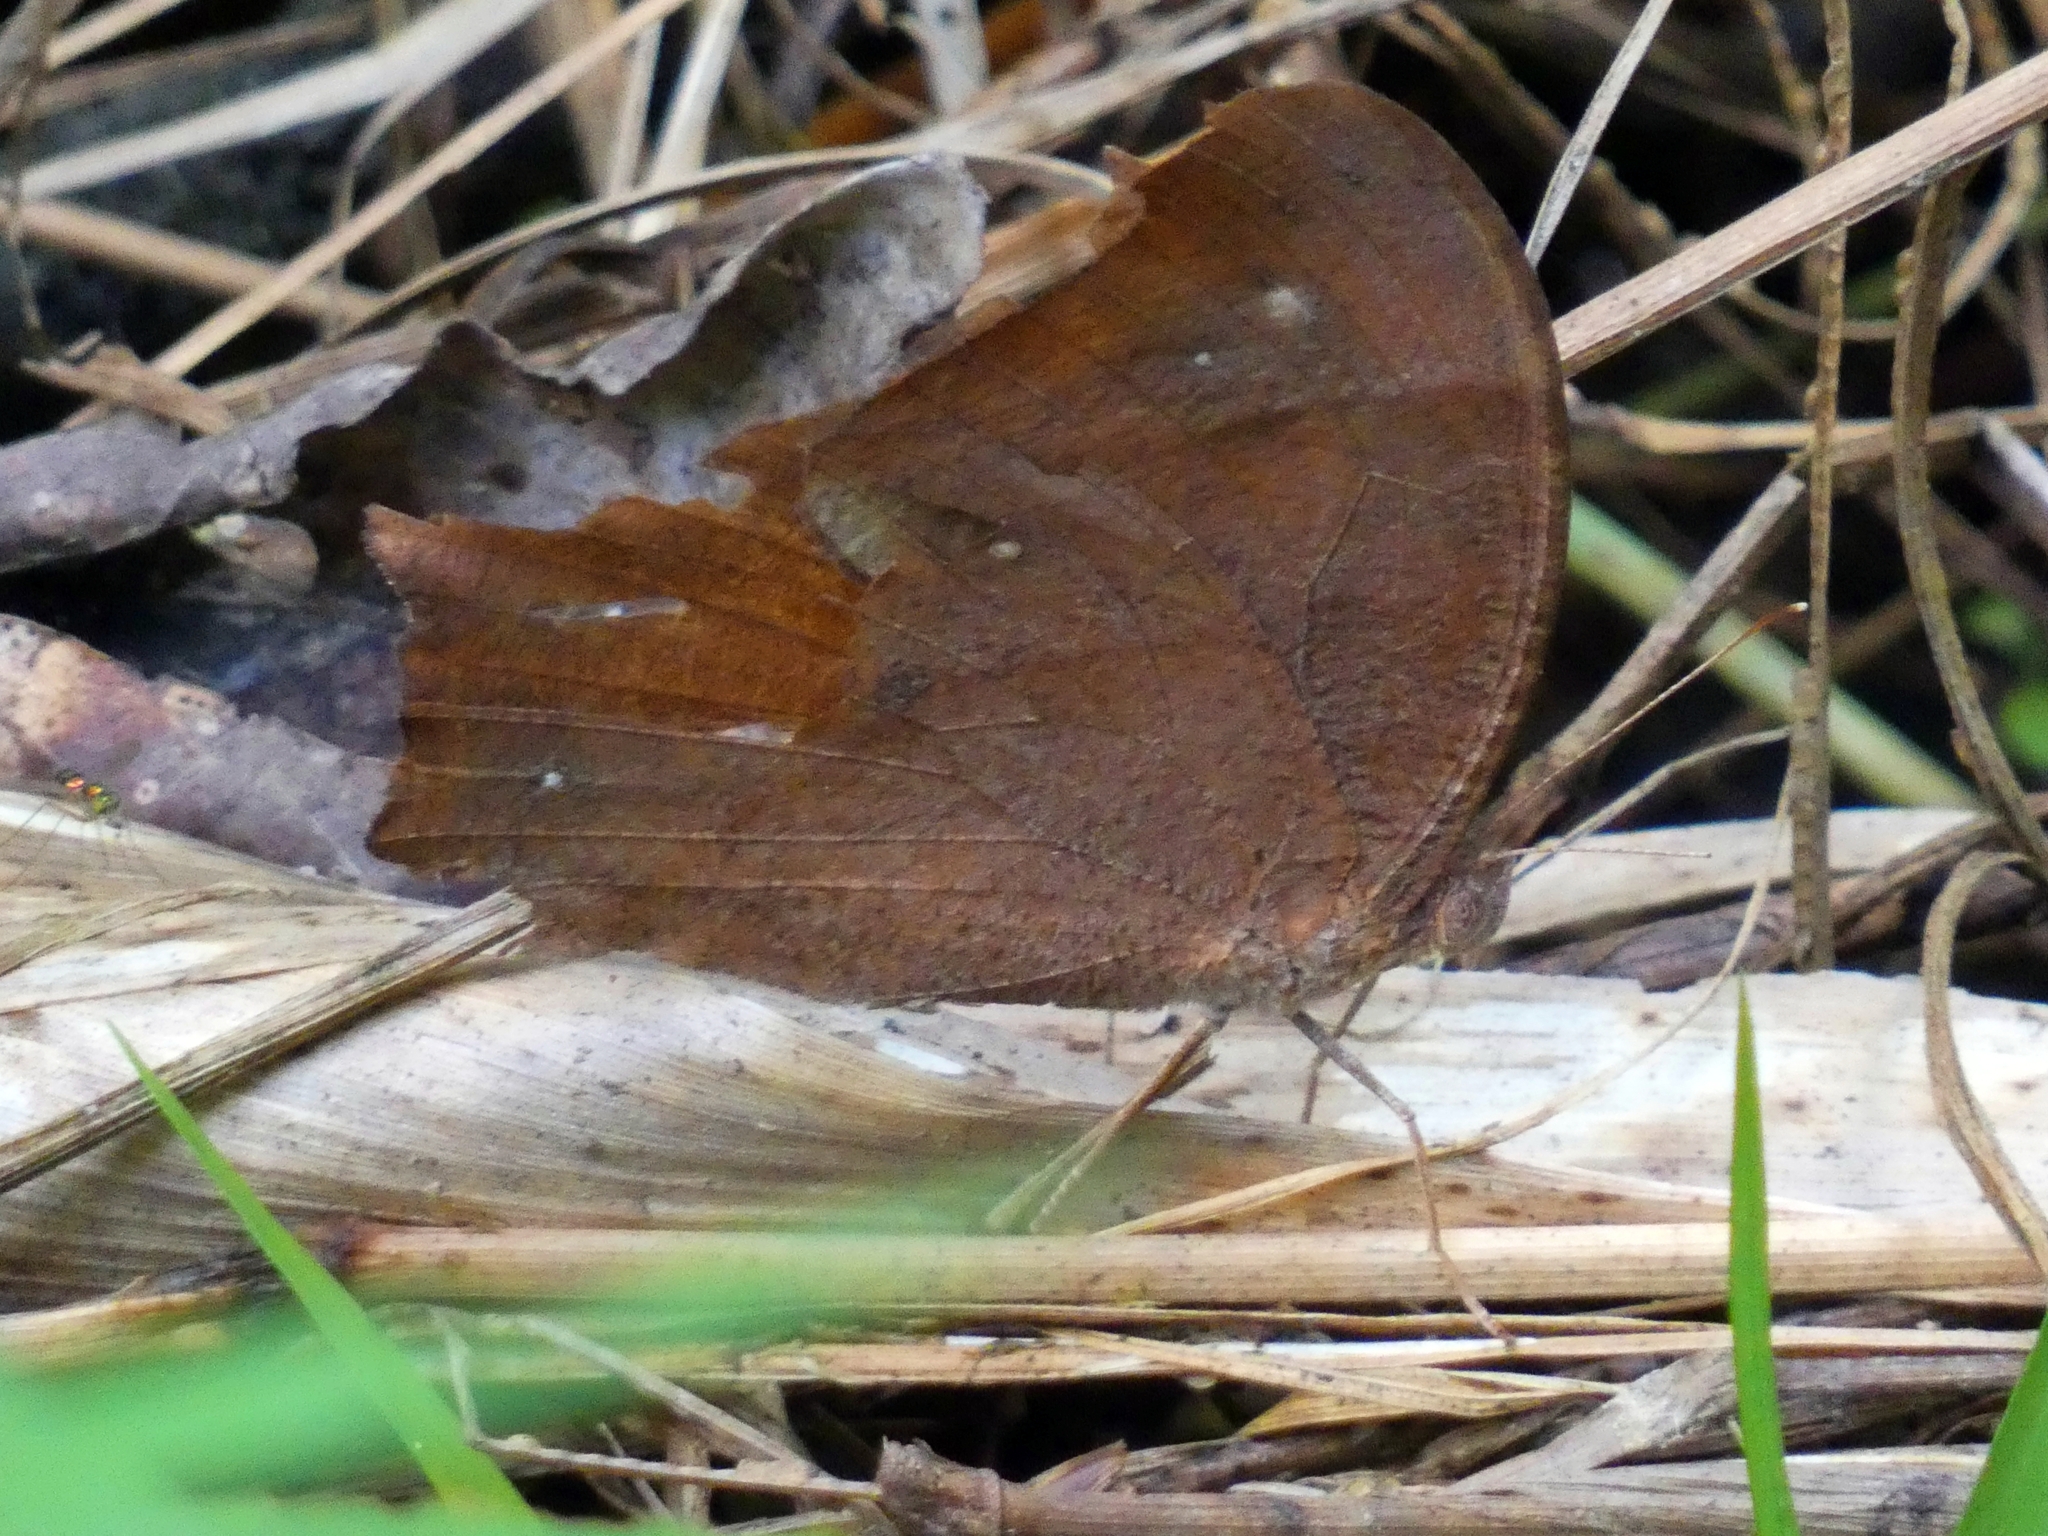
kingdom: Animalia
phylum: Arthropoda
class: Insecta
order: Lepidoptera
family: Nymphalidae
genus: Melanitis
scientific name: Melanitis leda
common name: Twilight brown
